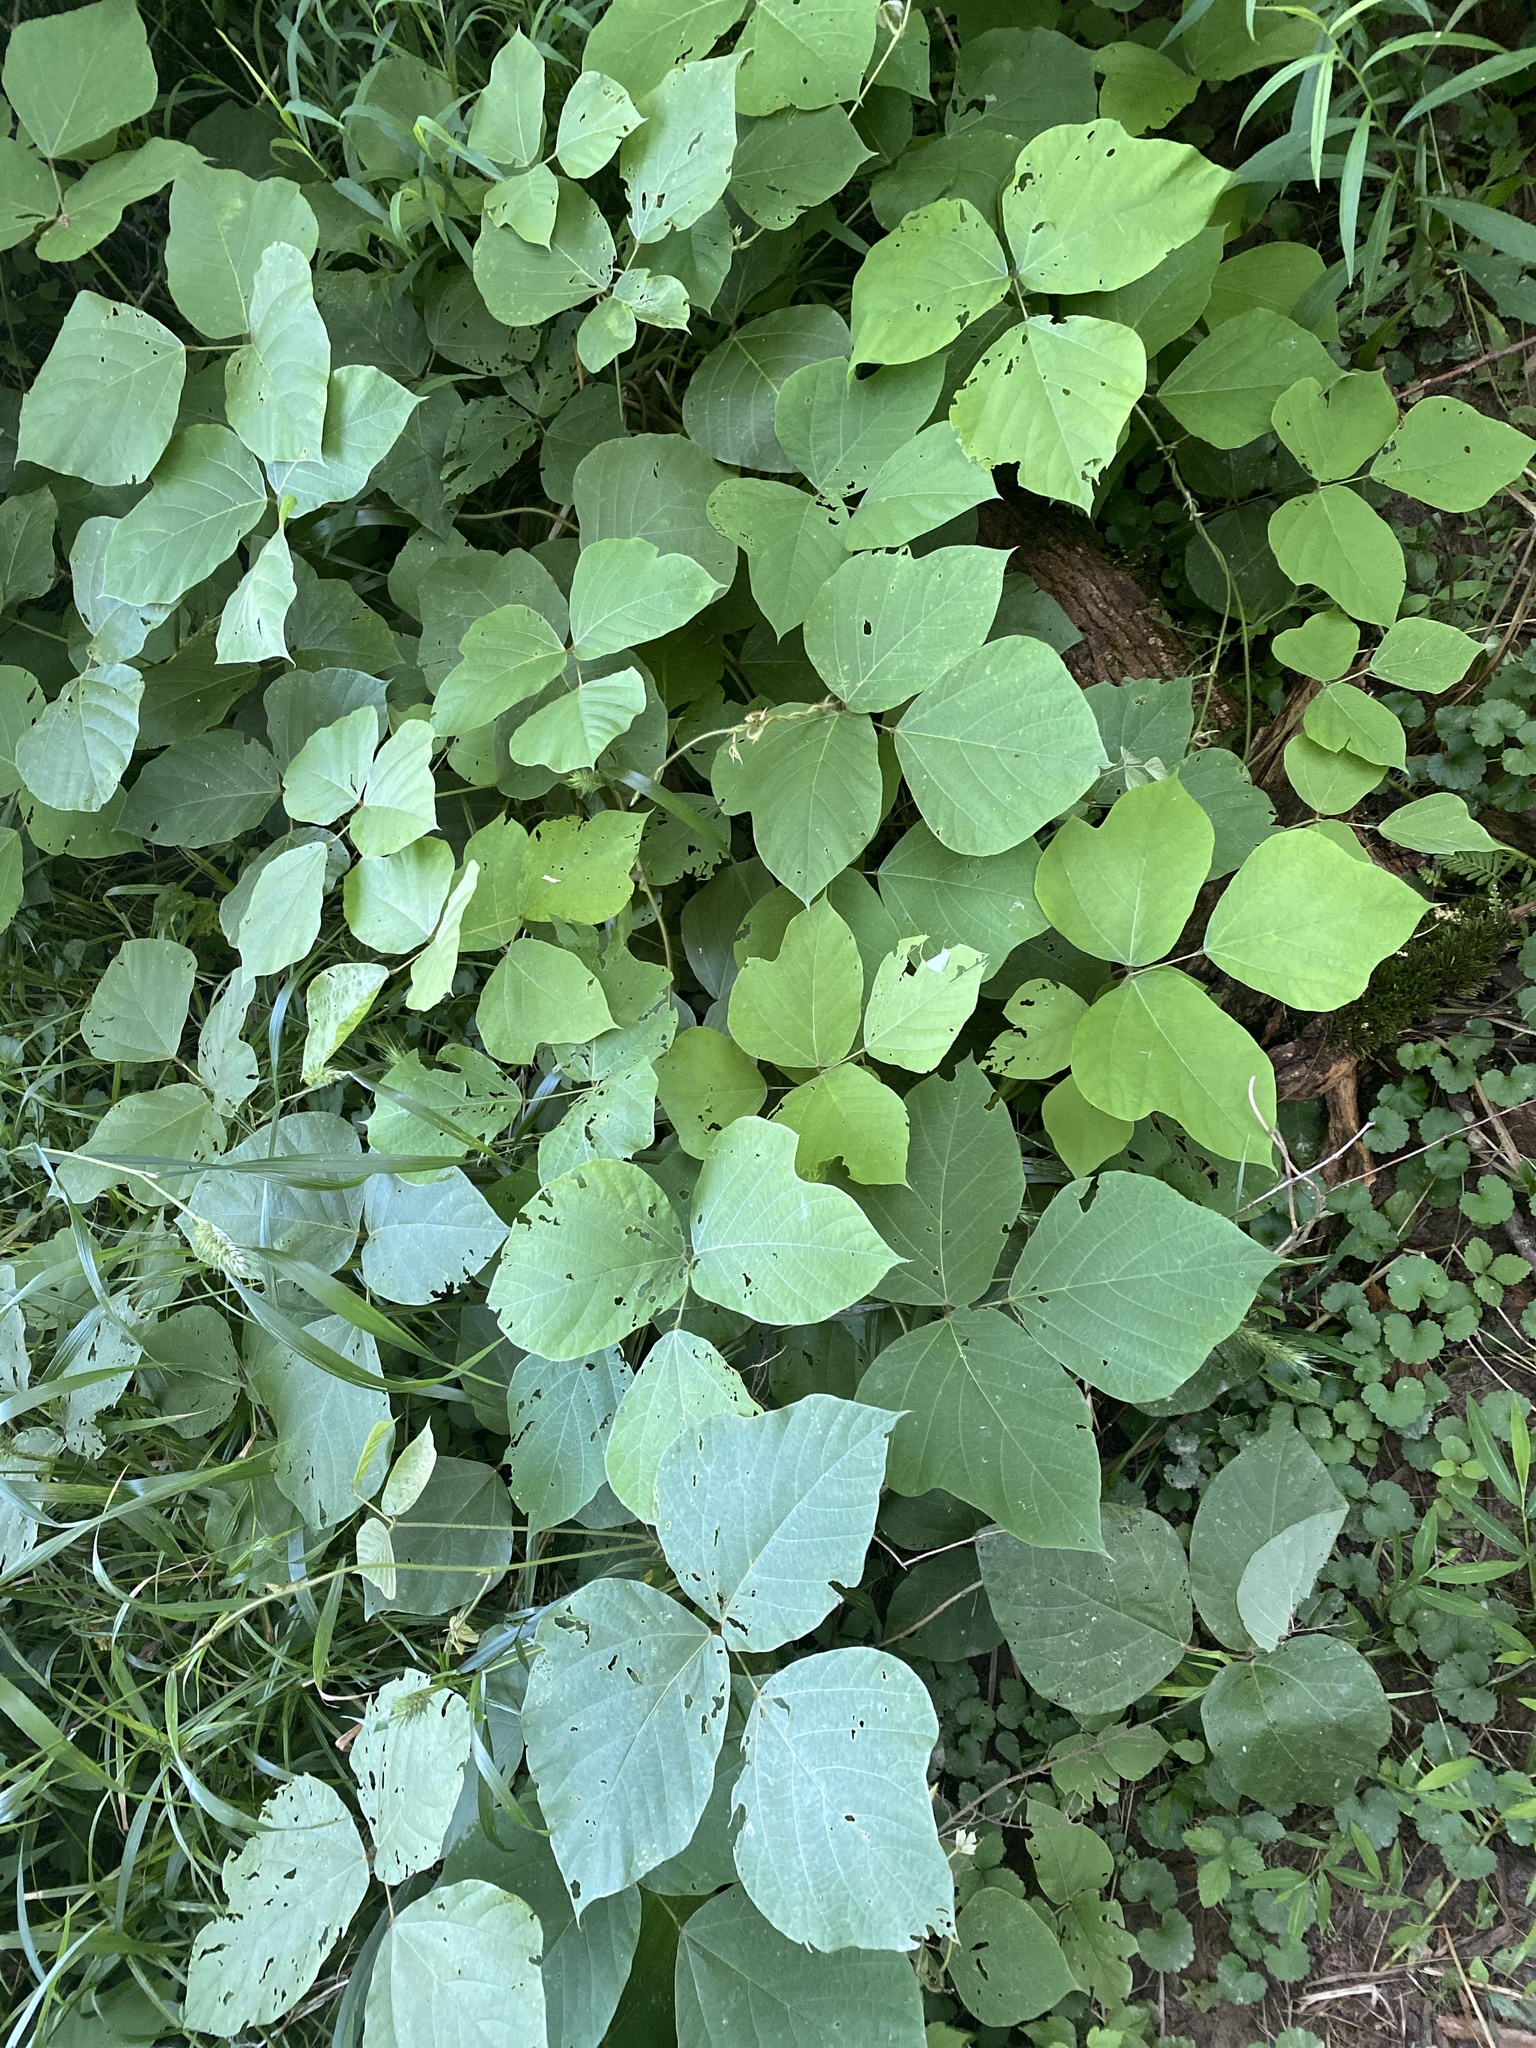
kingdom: Plantae
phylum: Tracheophyta
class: Magnoliopsida
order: Fabales
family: Fabaceae
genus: Pueraria
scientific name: Pueraria montana
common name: Kudzu
